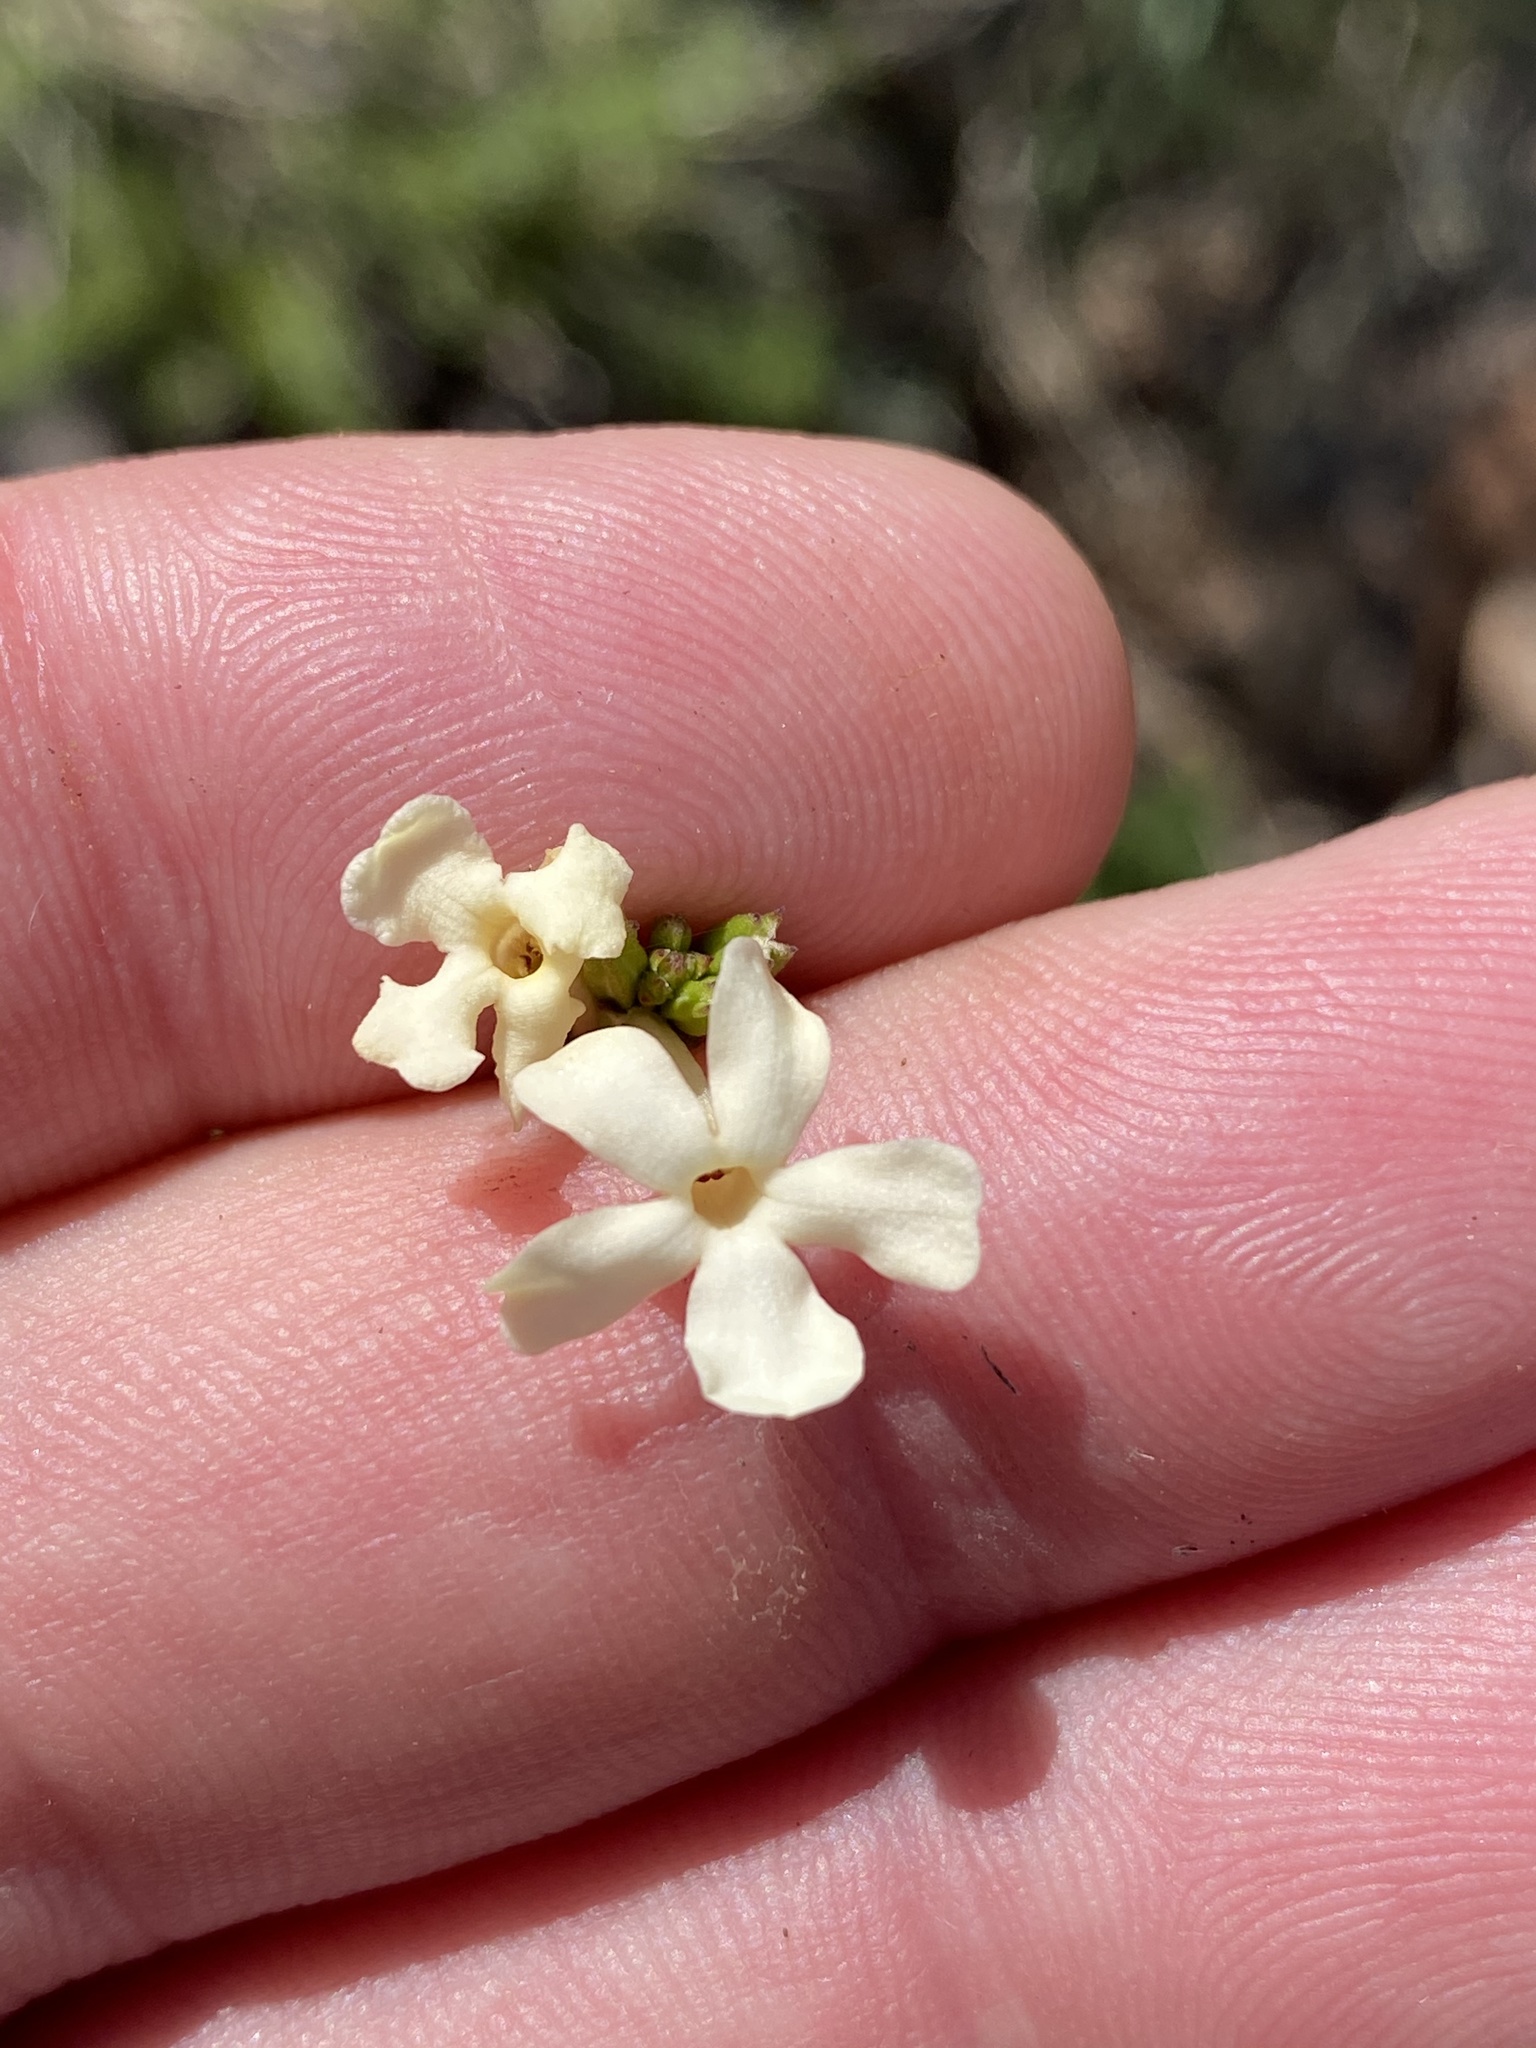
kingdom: Plantae
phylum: Tracheophyta
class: Magnoliopsida
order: Lamiales
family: Verbenaceae
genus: Chascanum
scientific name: Chascanum cuneifolium
